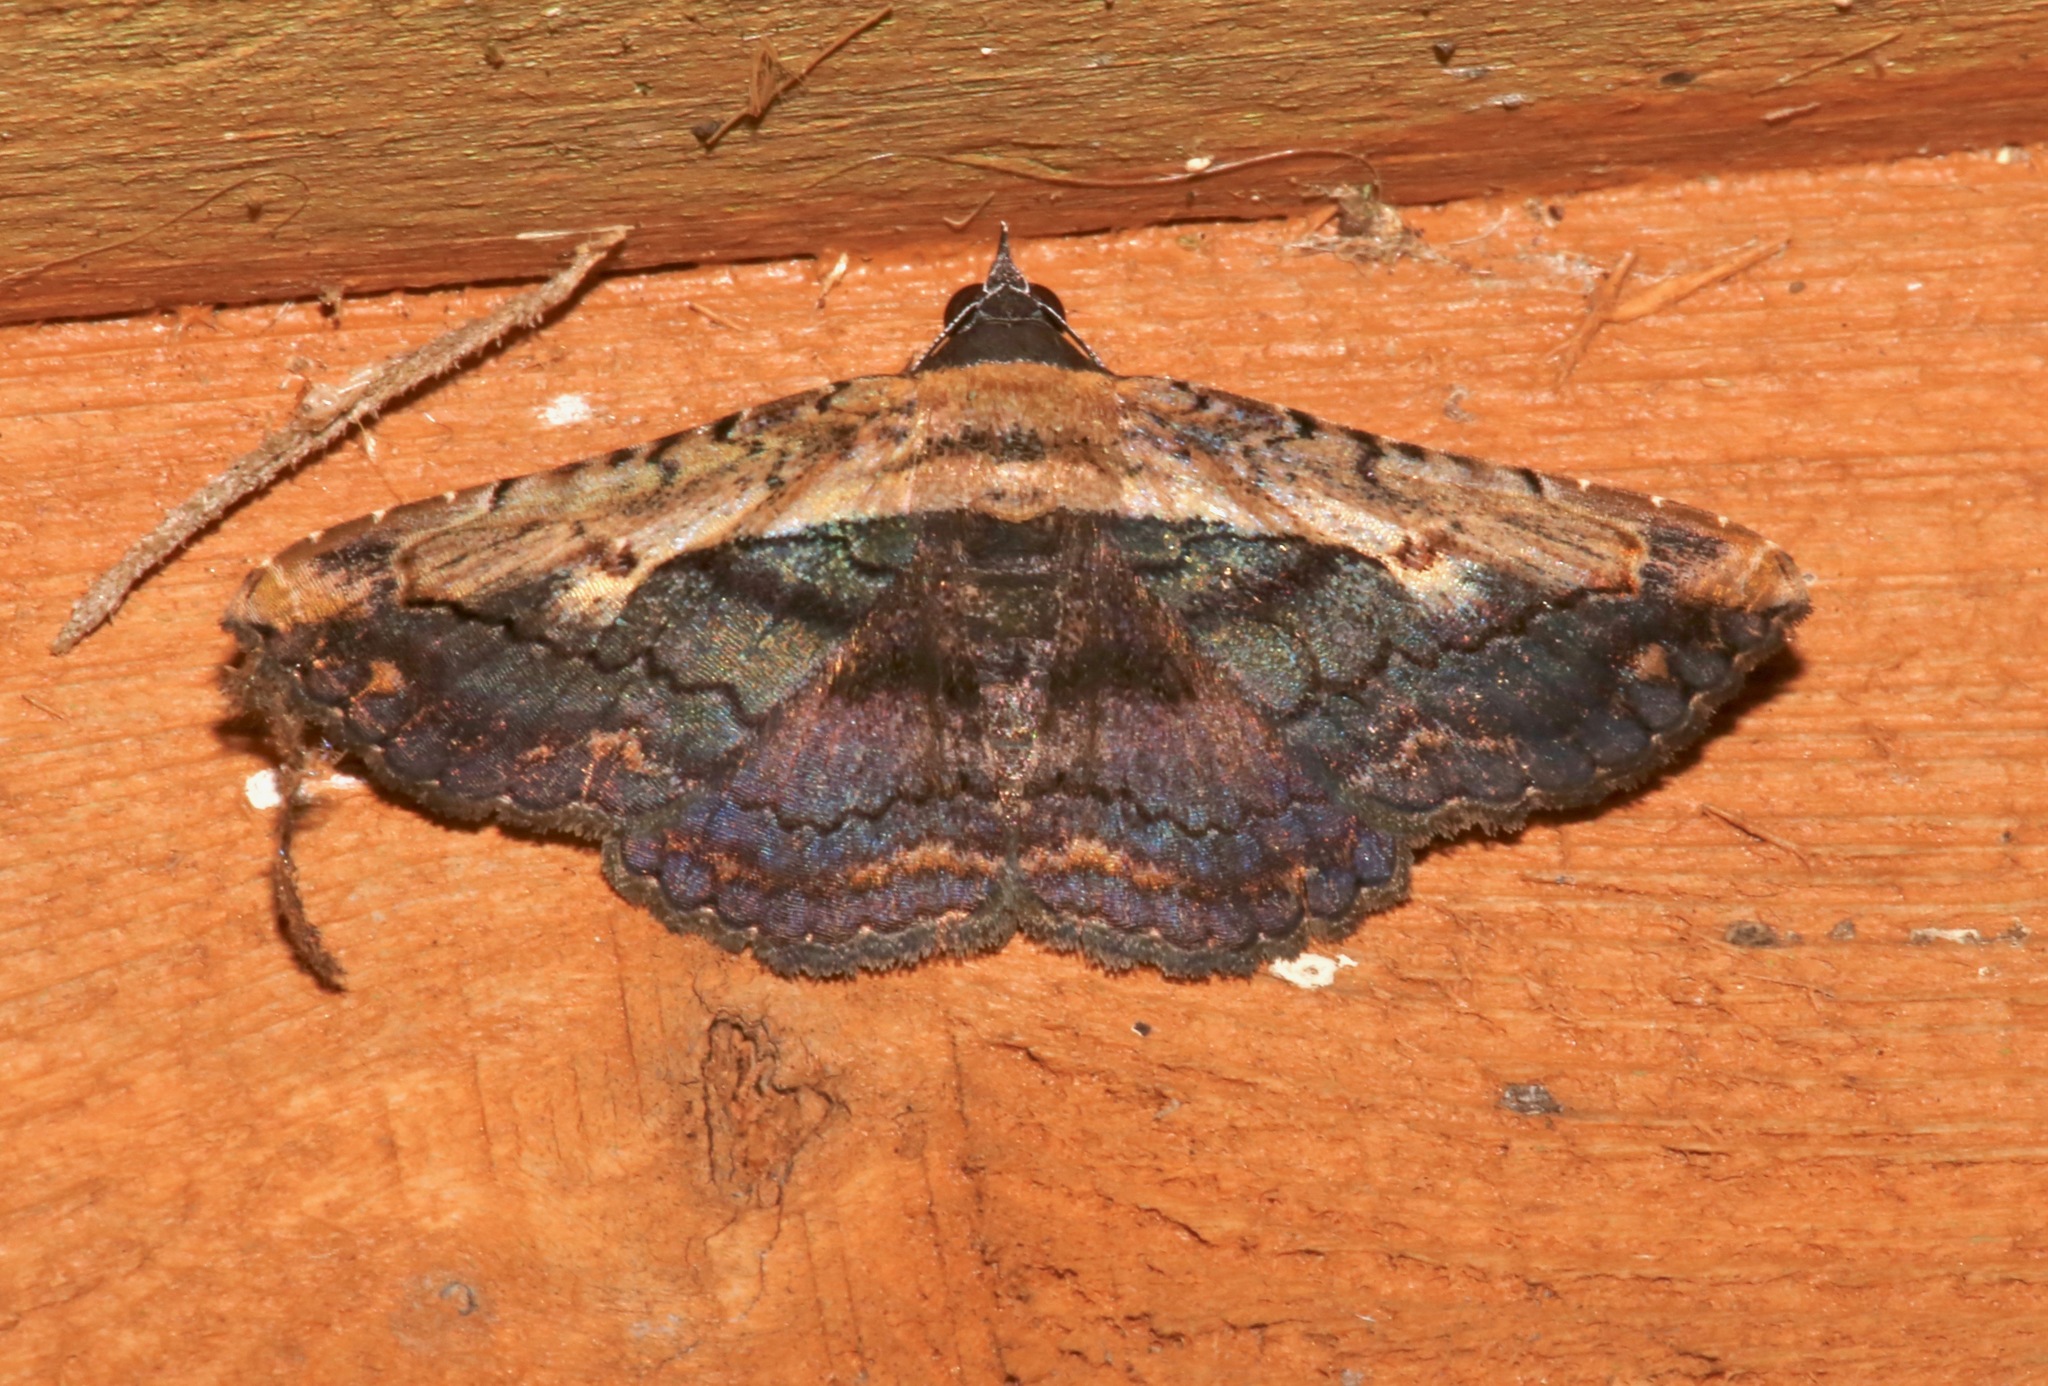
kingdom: Animalia
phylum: Arthropoda
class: Insecta
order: Lepidoptera
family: Erebidae
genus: Selenisa
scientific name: Selenisa sueroides
